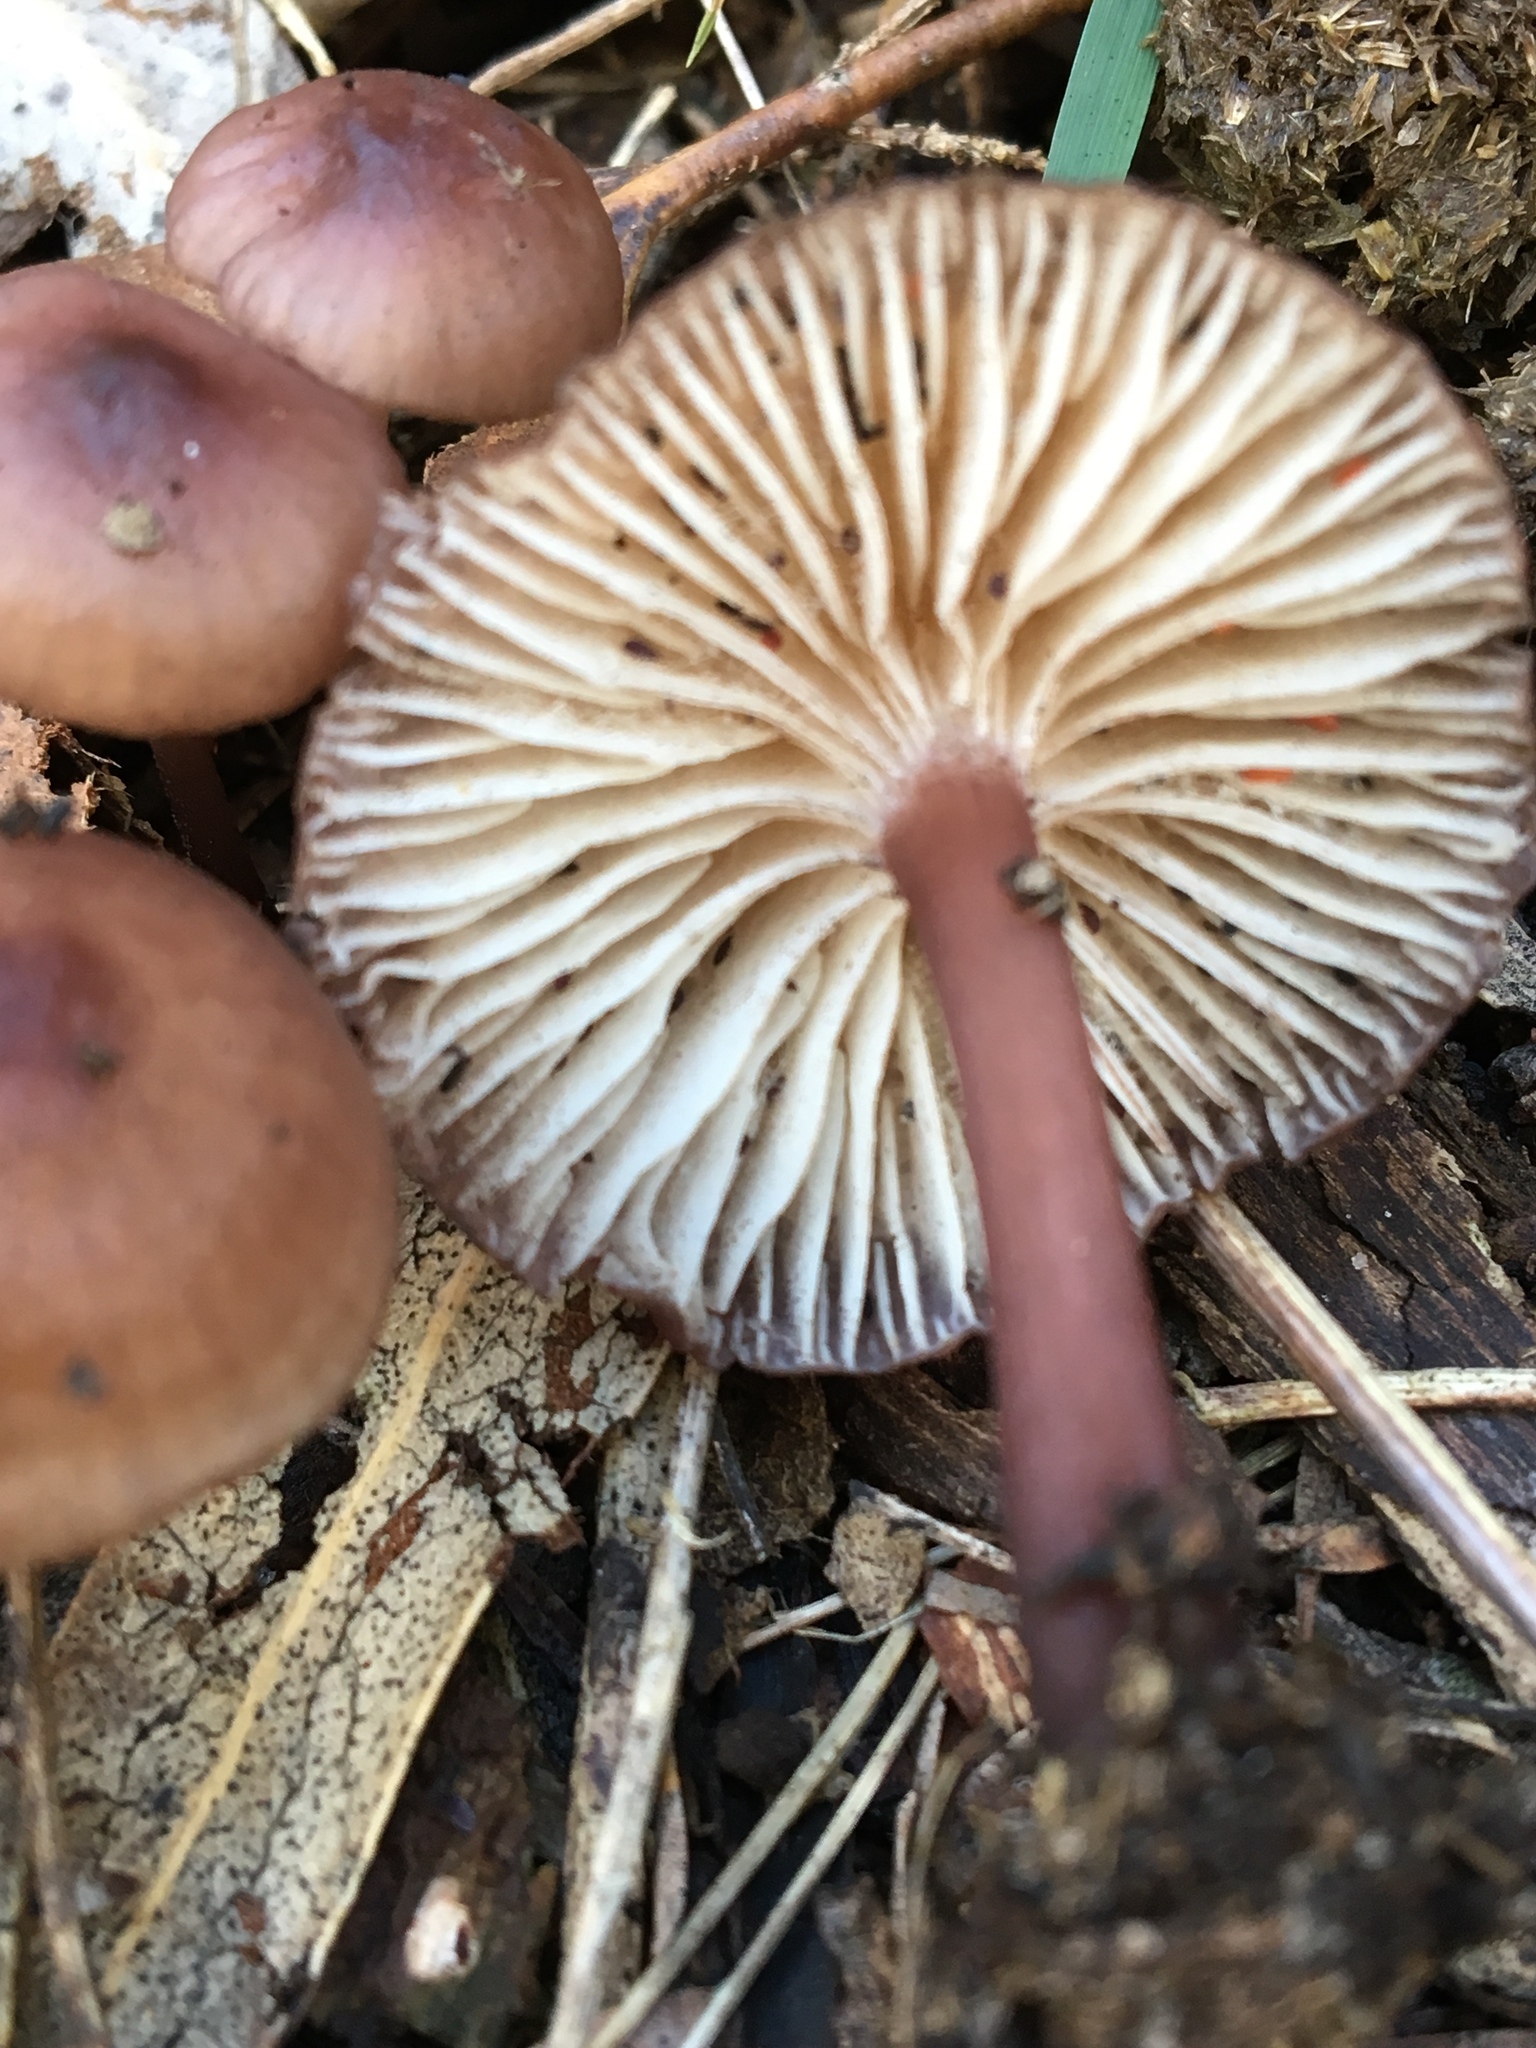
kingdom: Fungi
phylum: Basidiomycota
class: Agaricomycetes
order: Agaricales
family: Mycenaceae
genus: Mycena
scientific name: Mycena kurramulla
